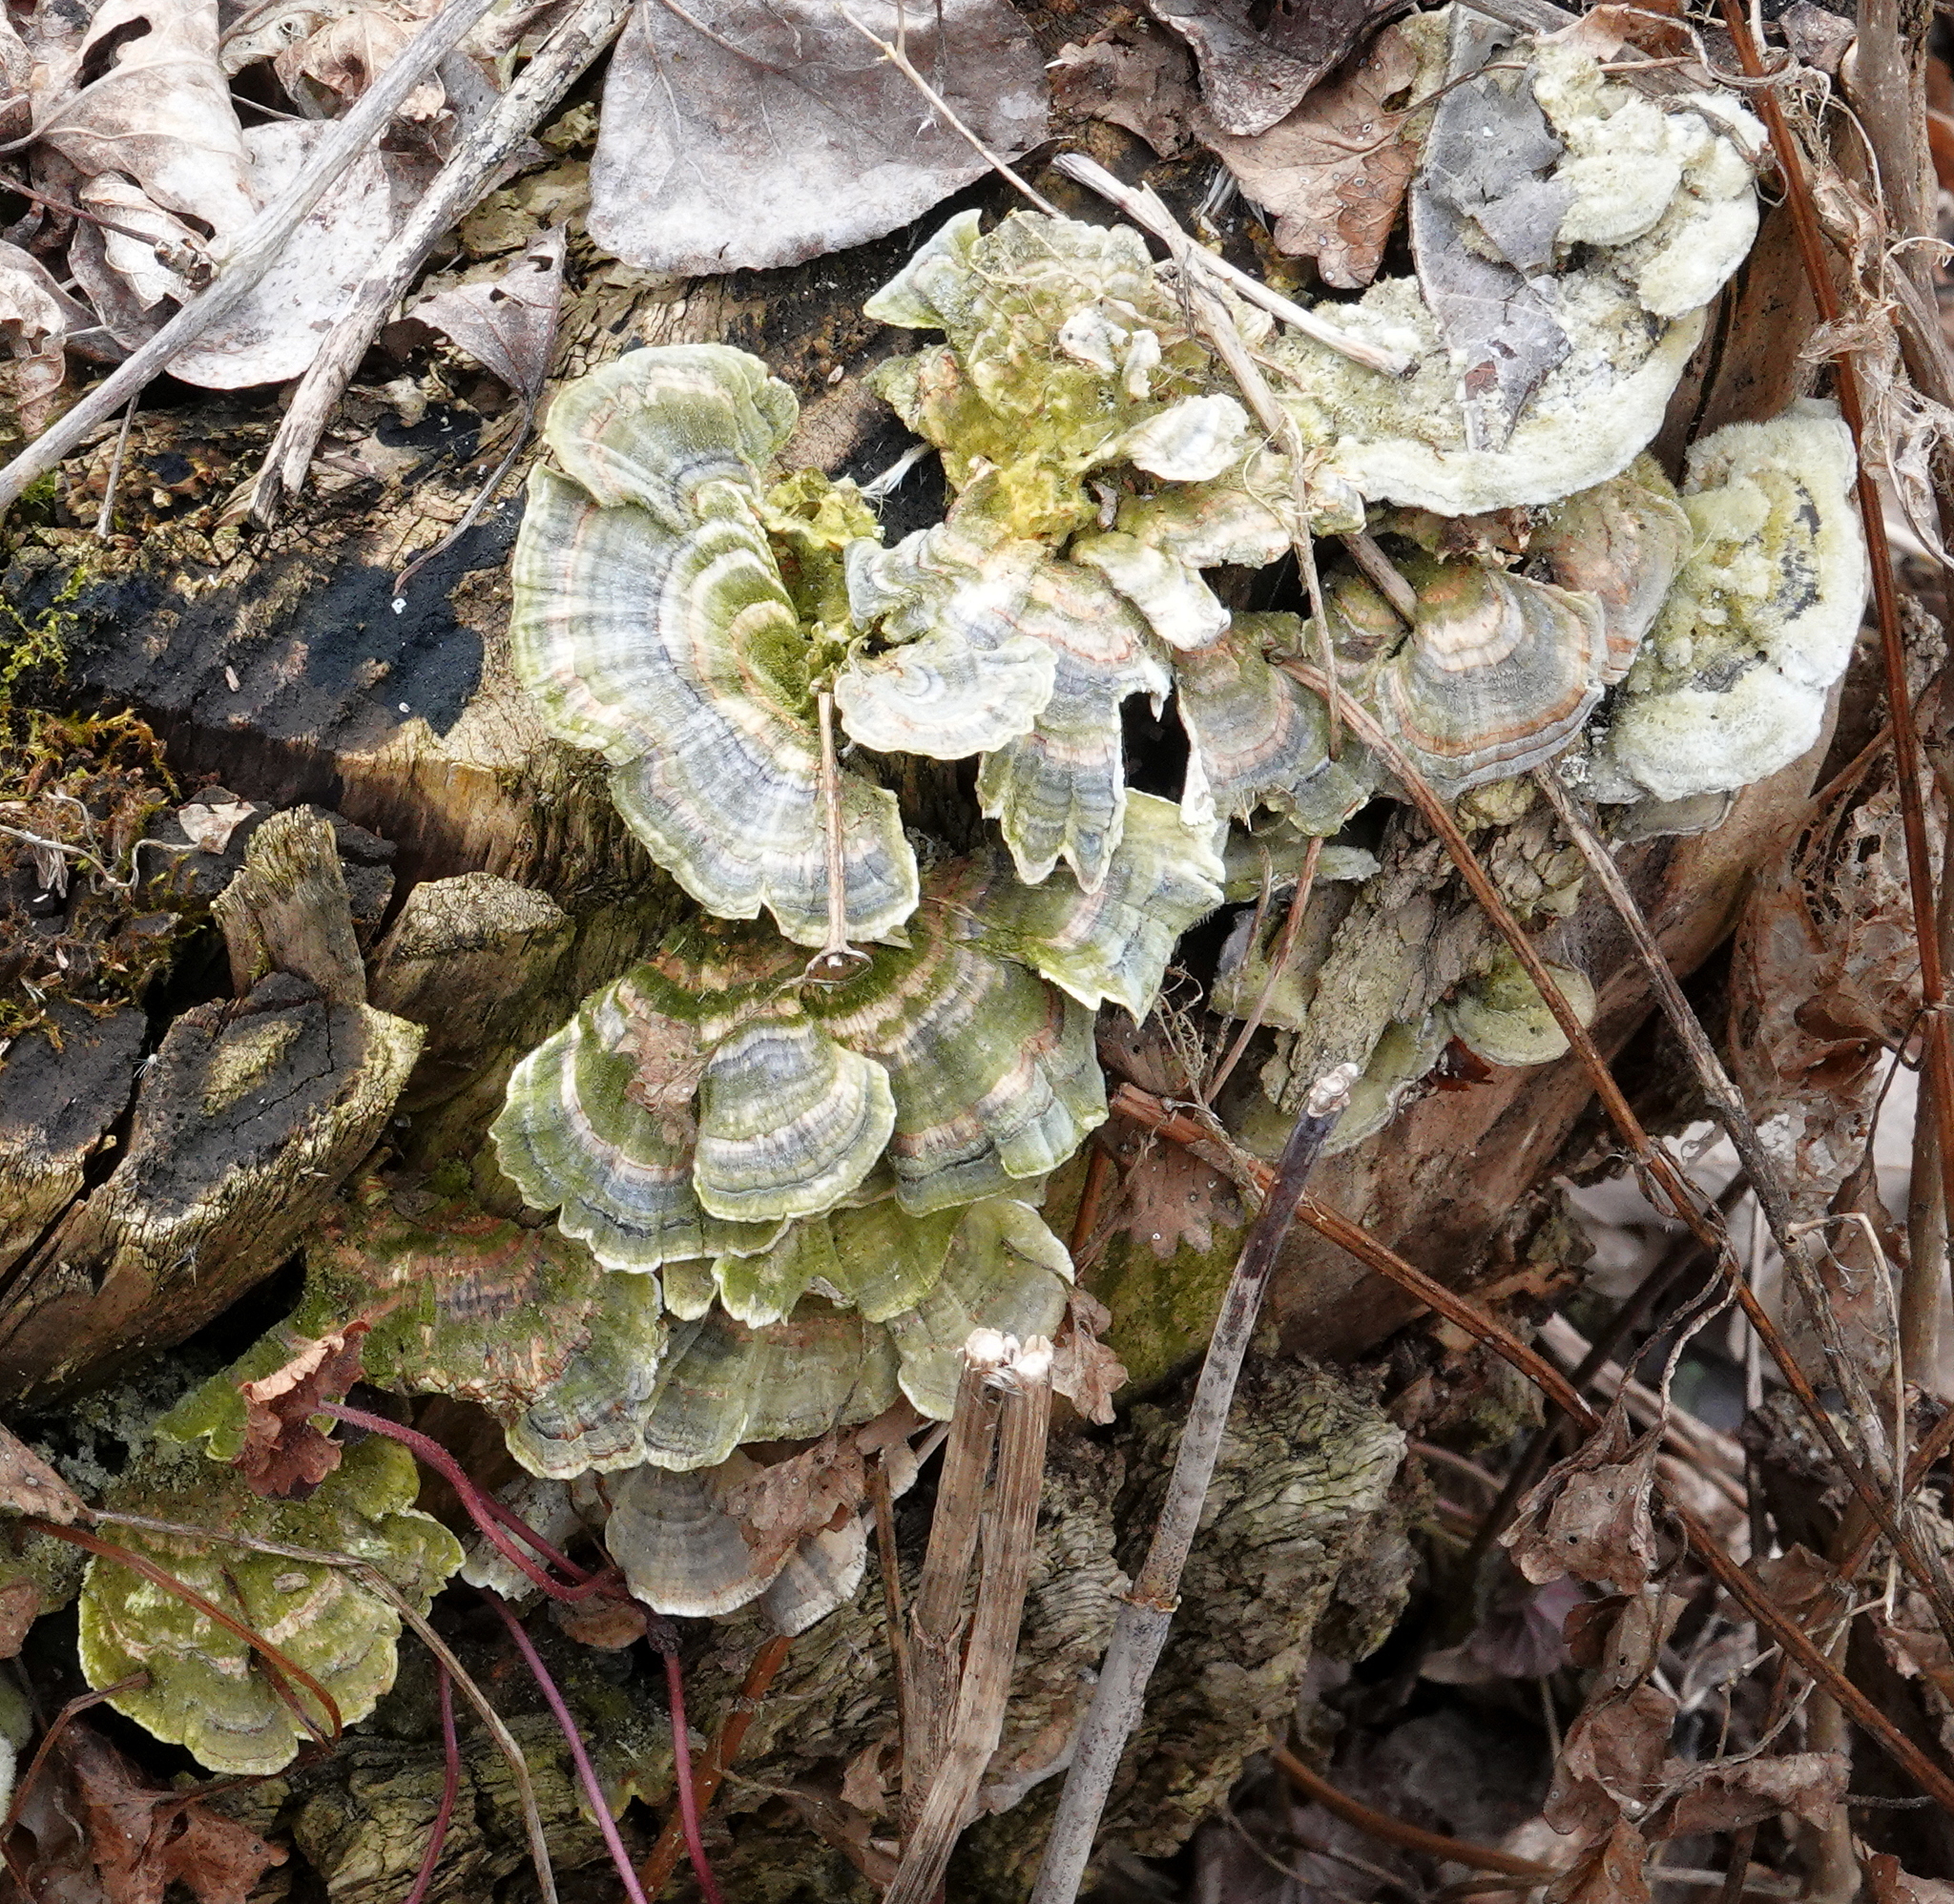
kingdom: Fungi
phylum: Basidiomycota
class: Agaricomycetes
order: Polyporales
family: Polyporaceae
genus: Trametes
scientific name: Trametes versicolor
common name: Turkeytail
